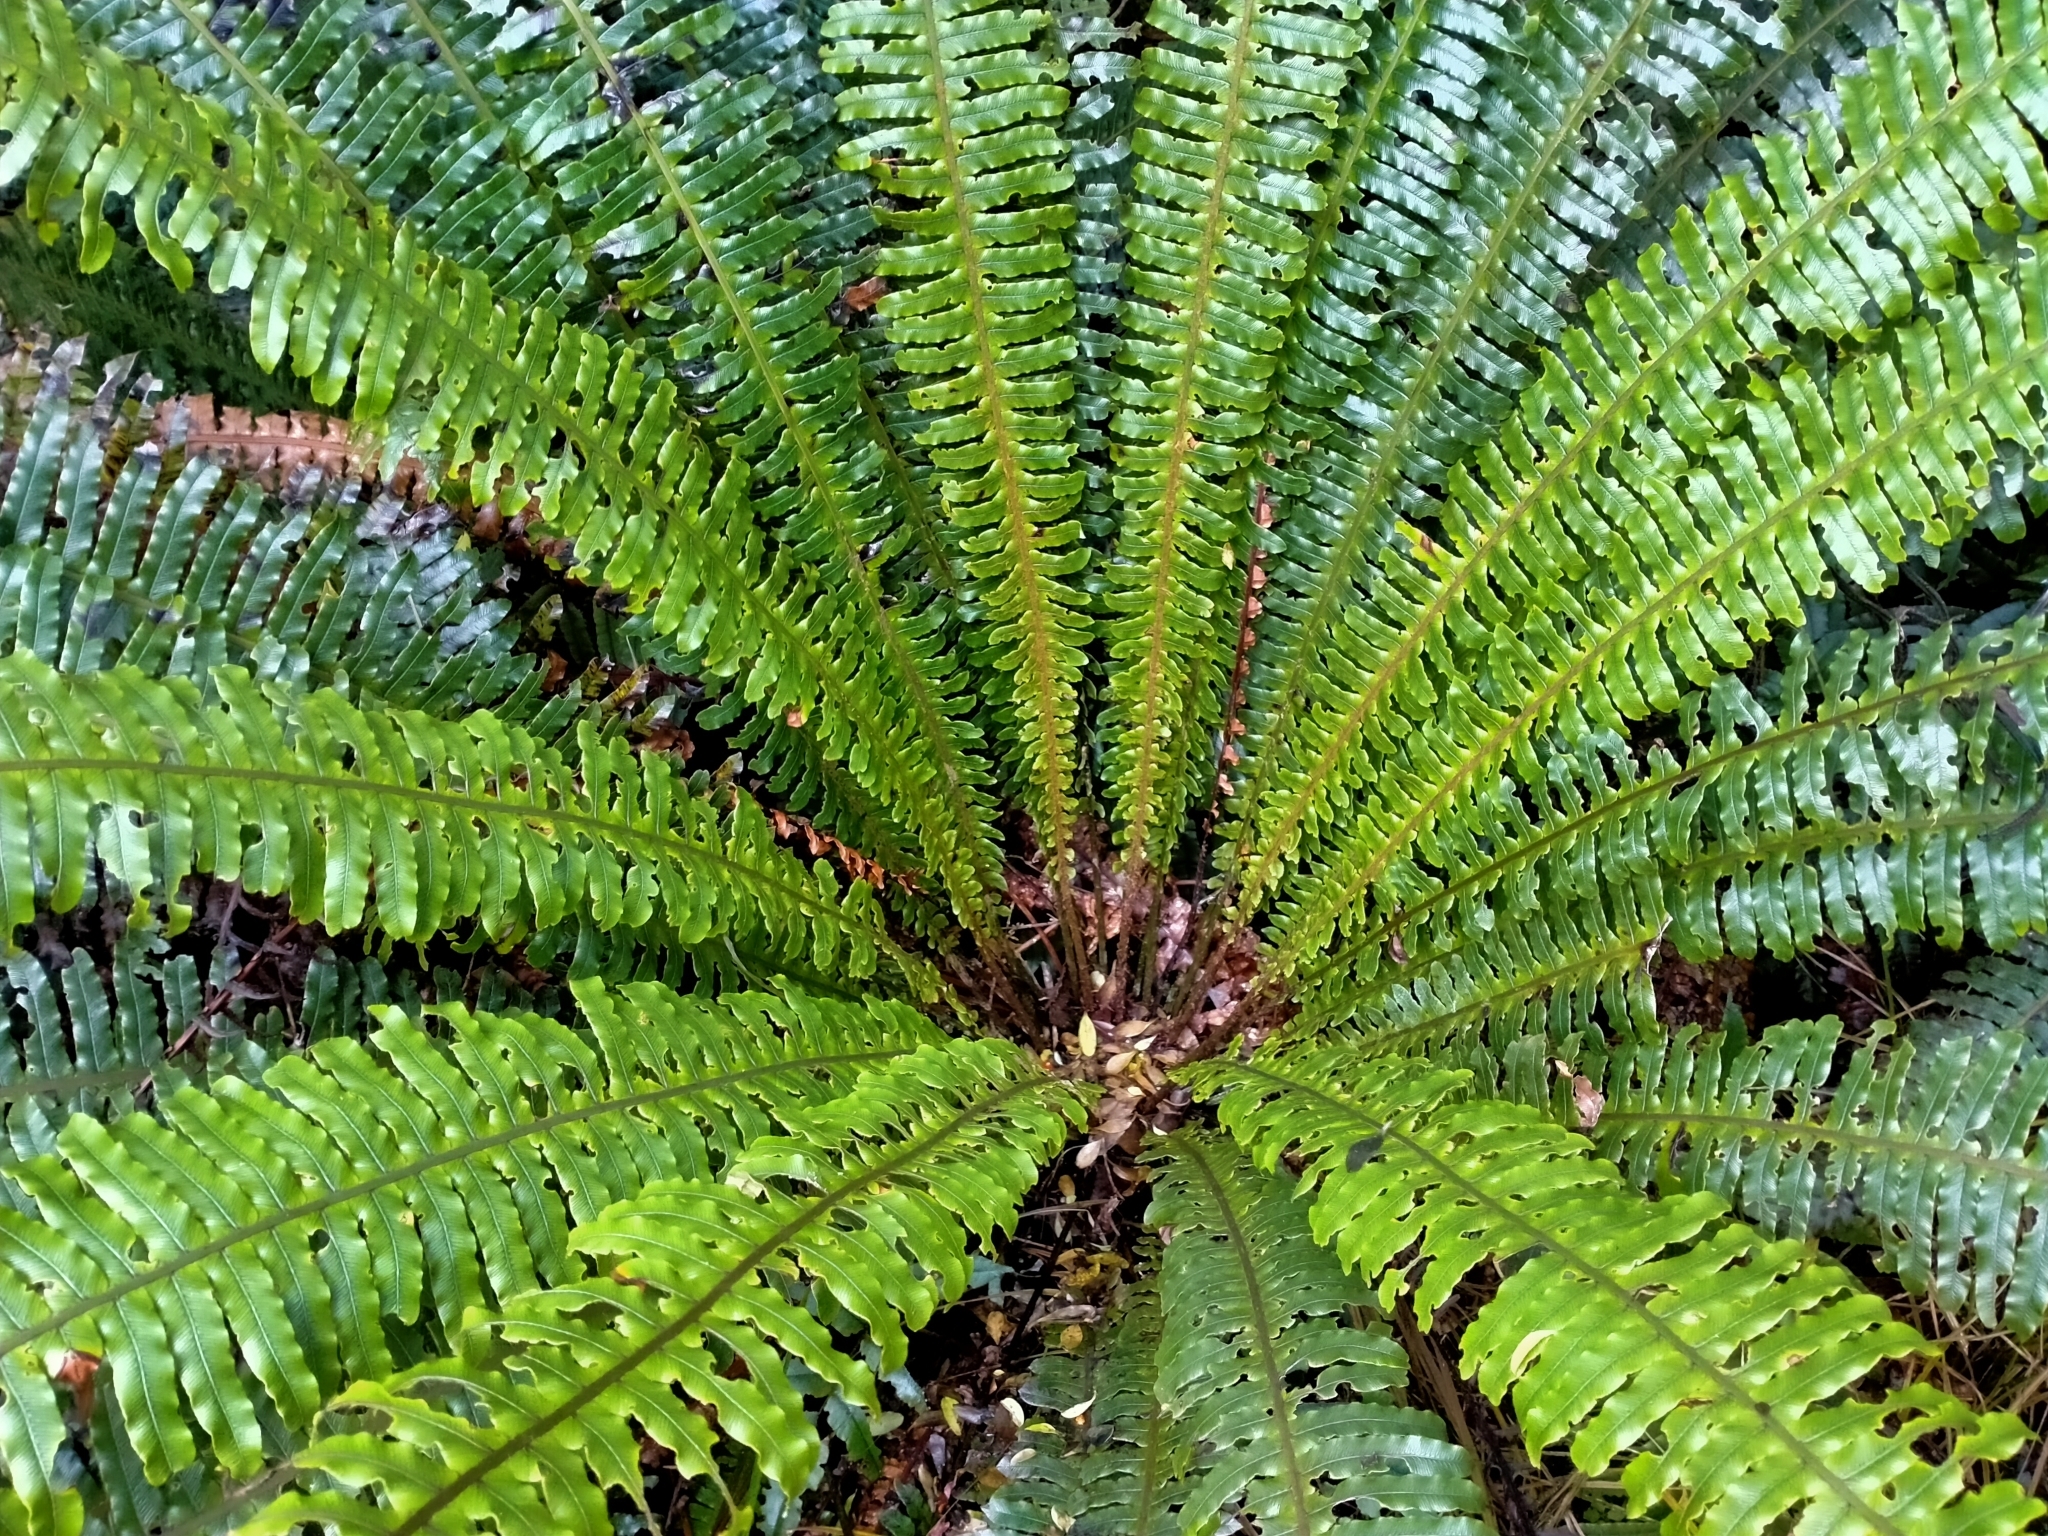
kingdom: Plantae
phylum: Tracheophyta
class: Polypodiopsida
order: Polypodiales
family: Blechnaceae
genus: Lomaria
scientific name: Lomaria discolor
